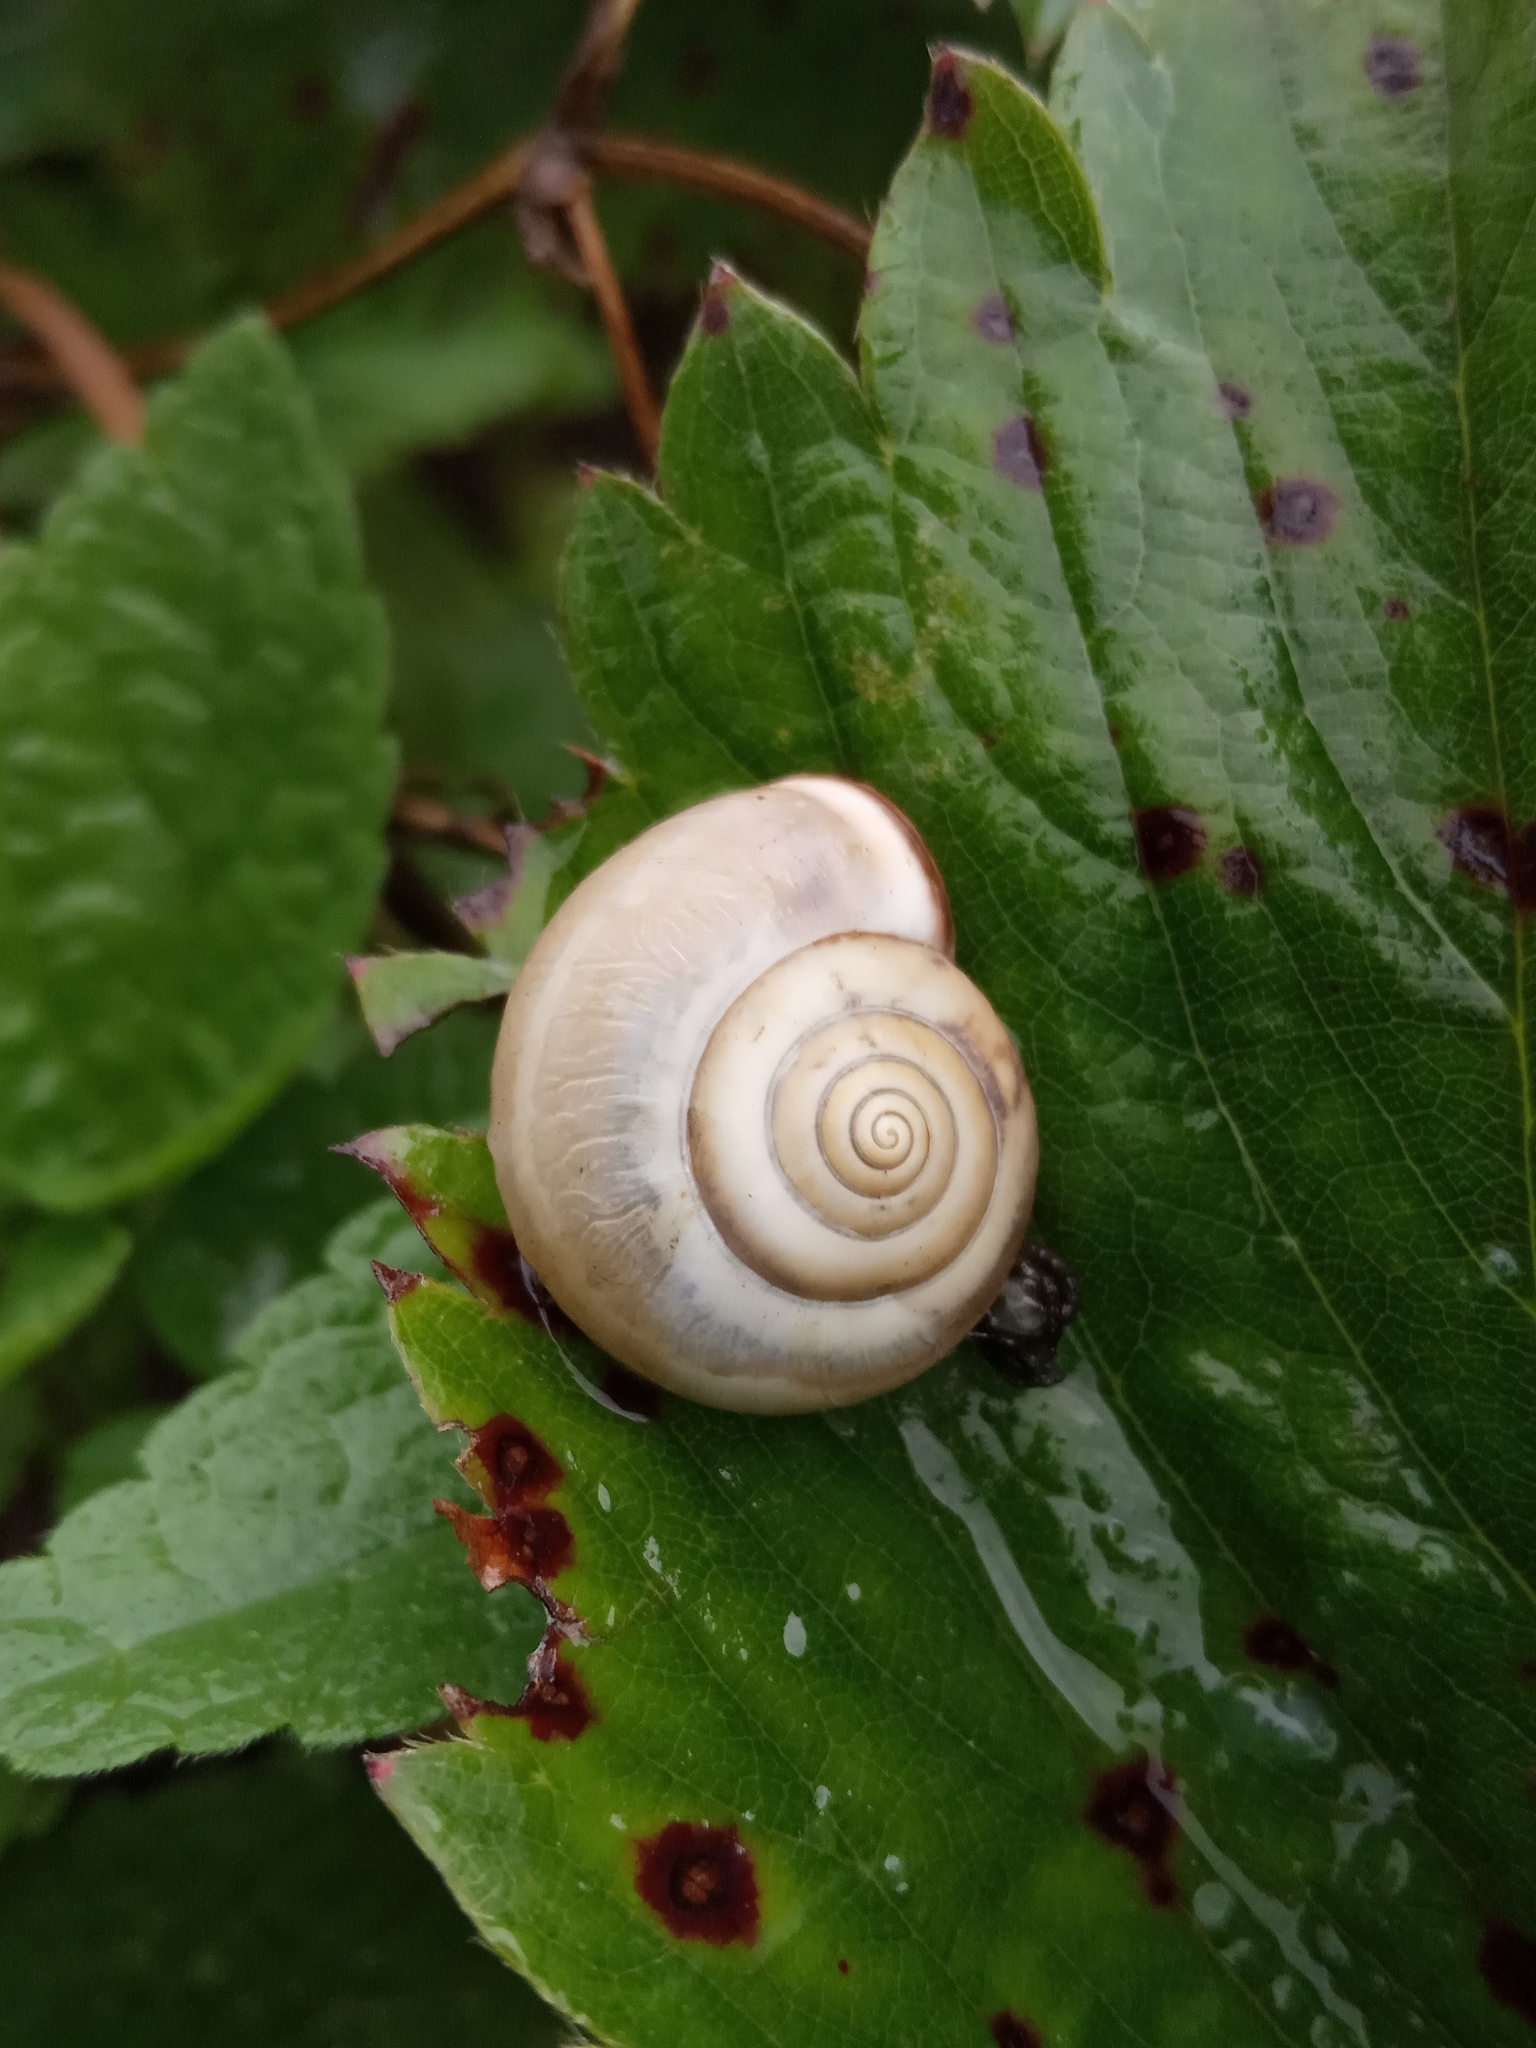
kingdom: Animalia
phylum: Mollusca
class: Gastropoda
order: Stylommatophora
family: Hygromiidae
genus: Monacha
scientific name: Monacha
